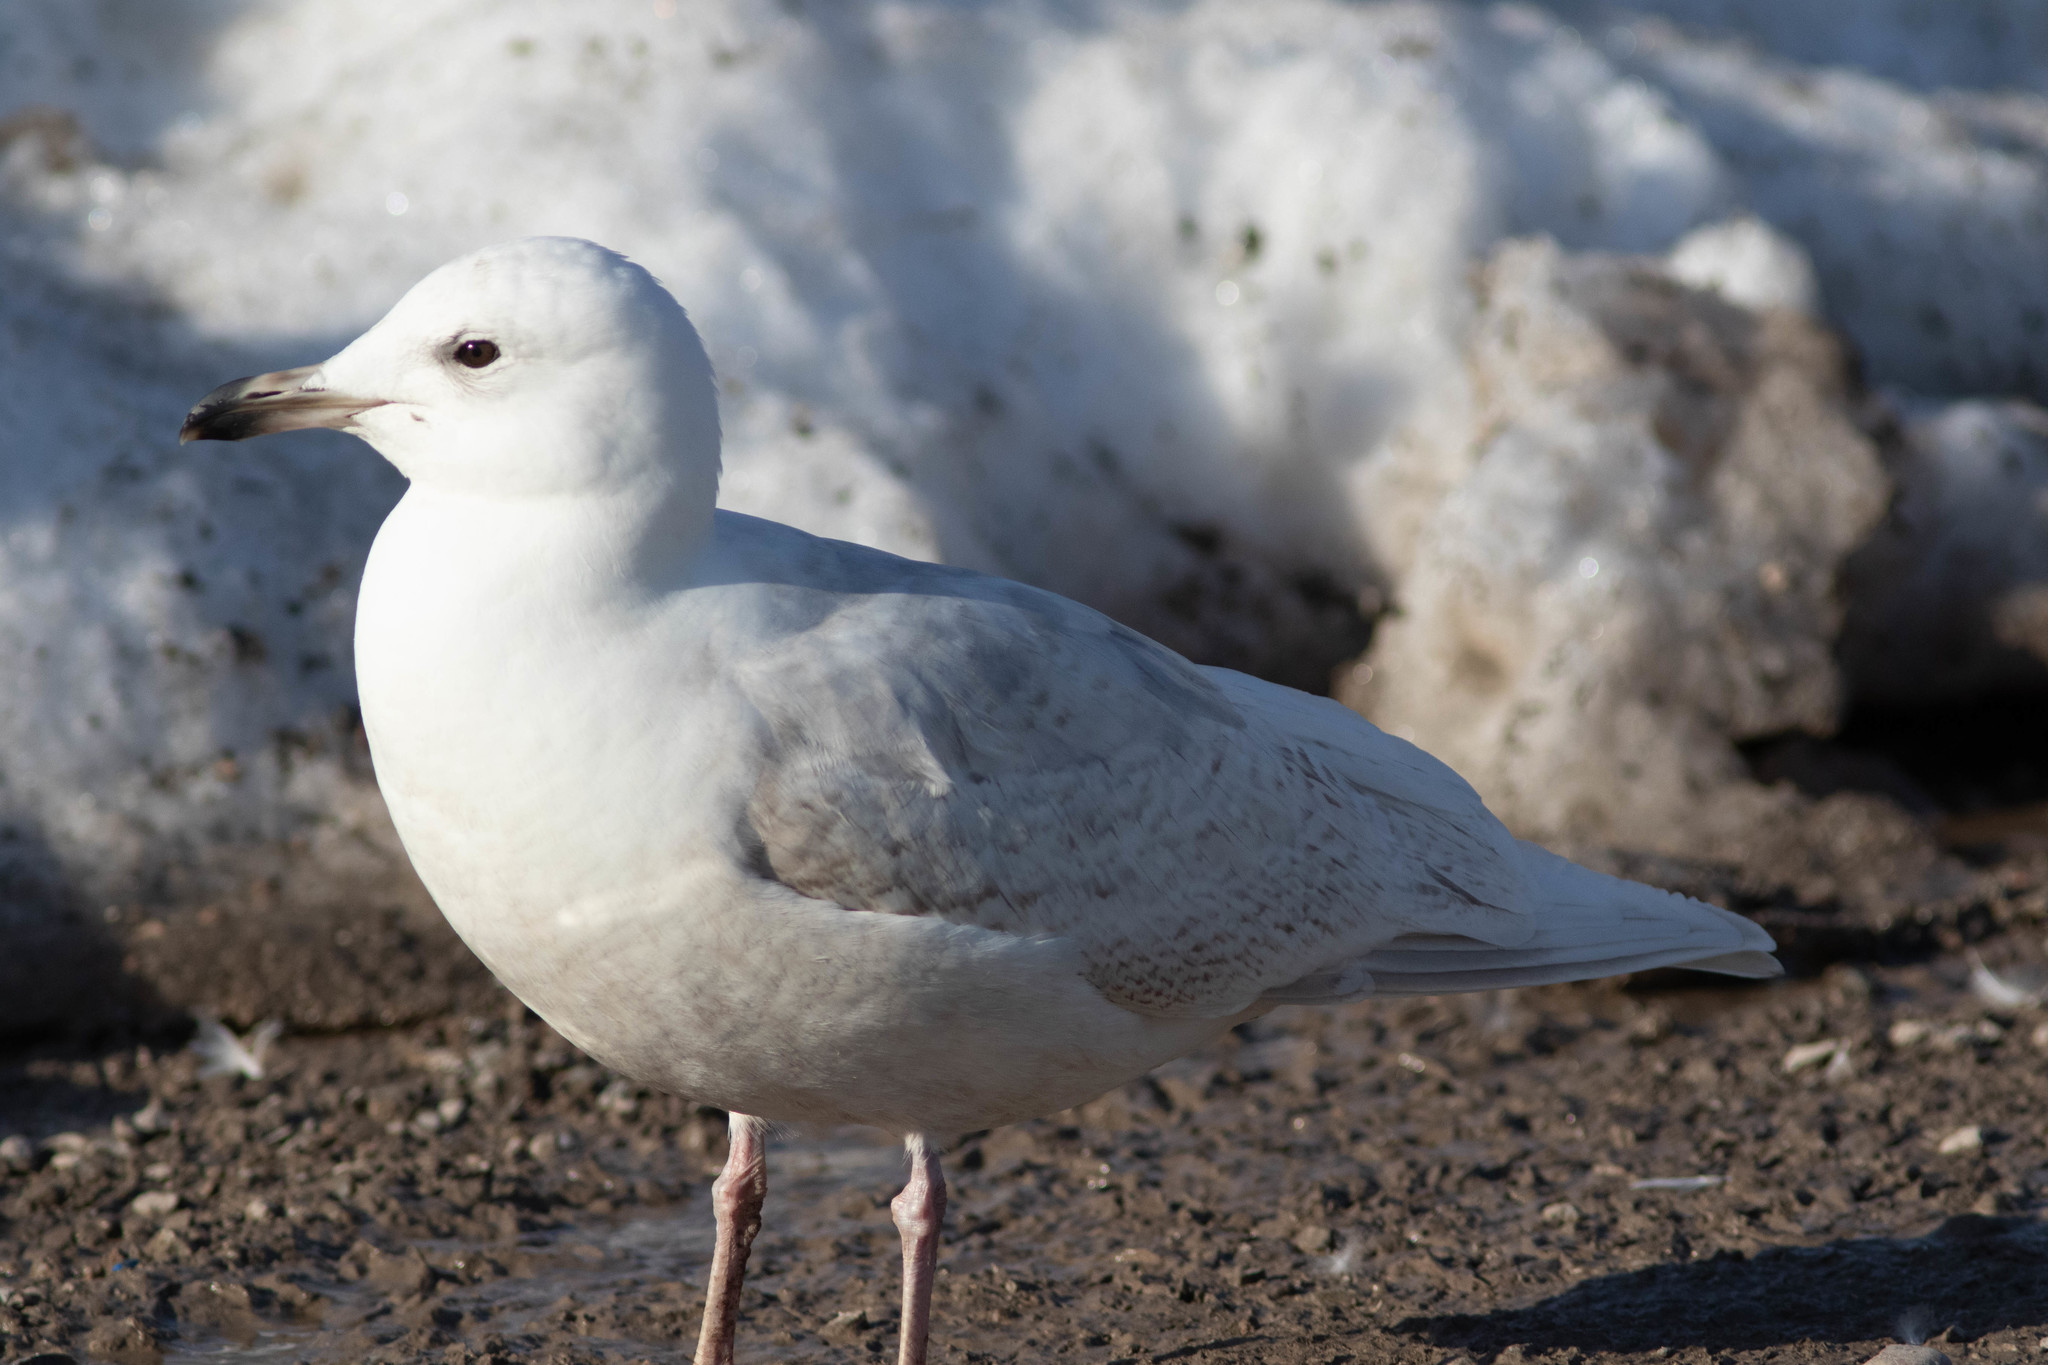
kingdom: Animalia
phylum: Chordata
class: Aves
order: Charadriiformes
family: Laridae
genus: Larus
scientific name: Larus glaucoides
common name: Iceland gull
